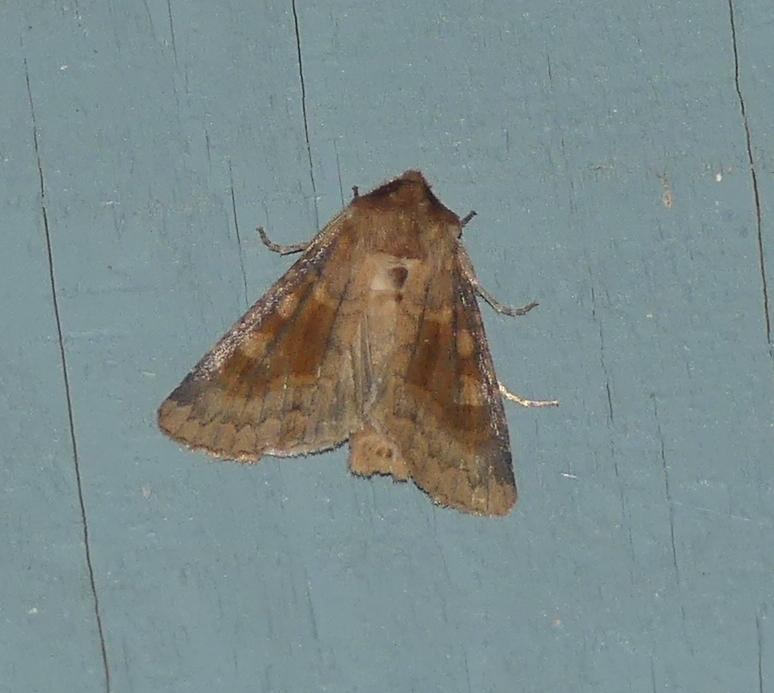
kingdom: Animalia
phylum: Arthropoda
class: Insecta
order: Lepidoptera
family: Noctuidae
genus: Nephelodes
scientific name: Nephelodes minians
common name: Bronzed cutworm
